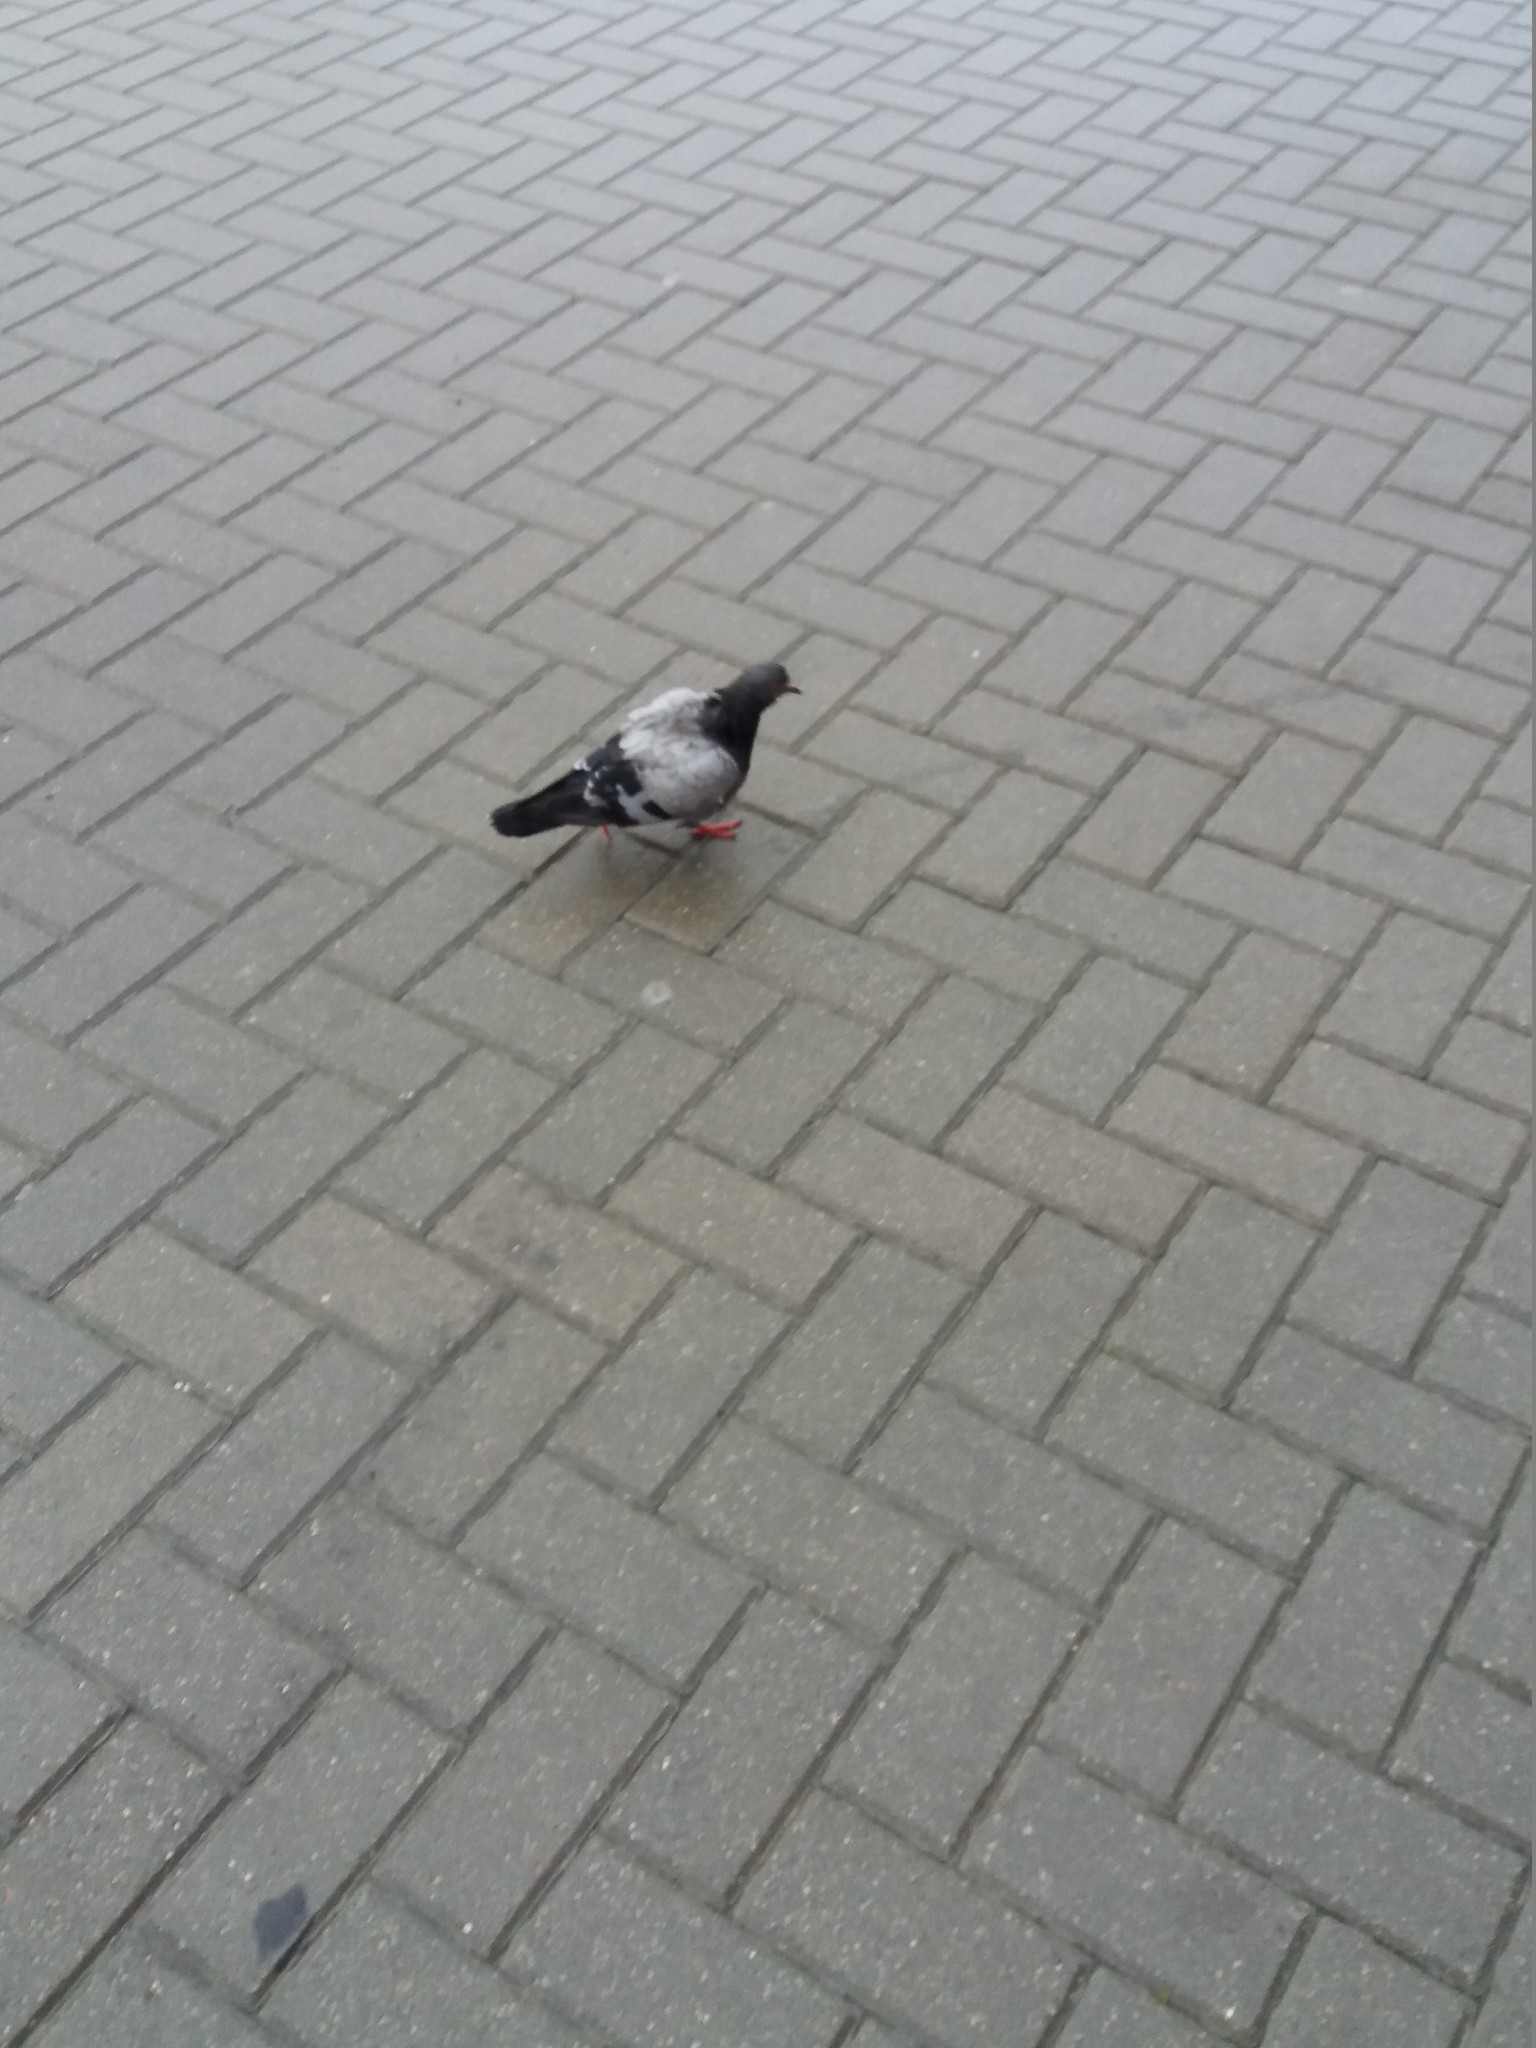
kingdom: Animalia
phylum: Chordata
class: Aves
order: Columbiformes
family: Columbidae
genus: Columba
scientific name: Columba livia
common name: Rock pigeon
